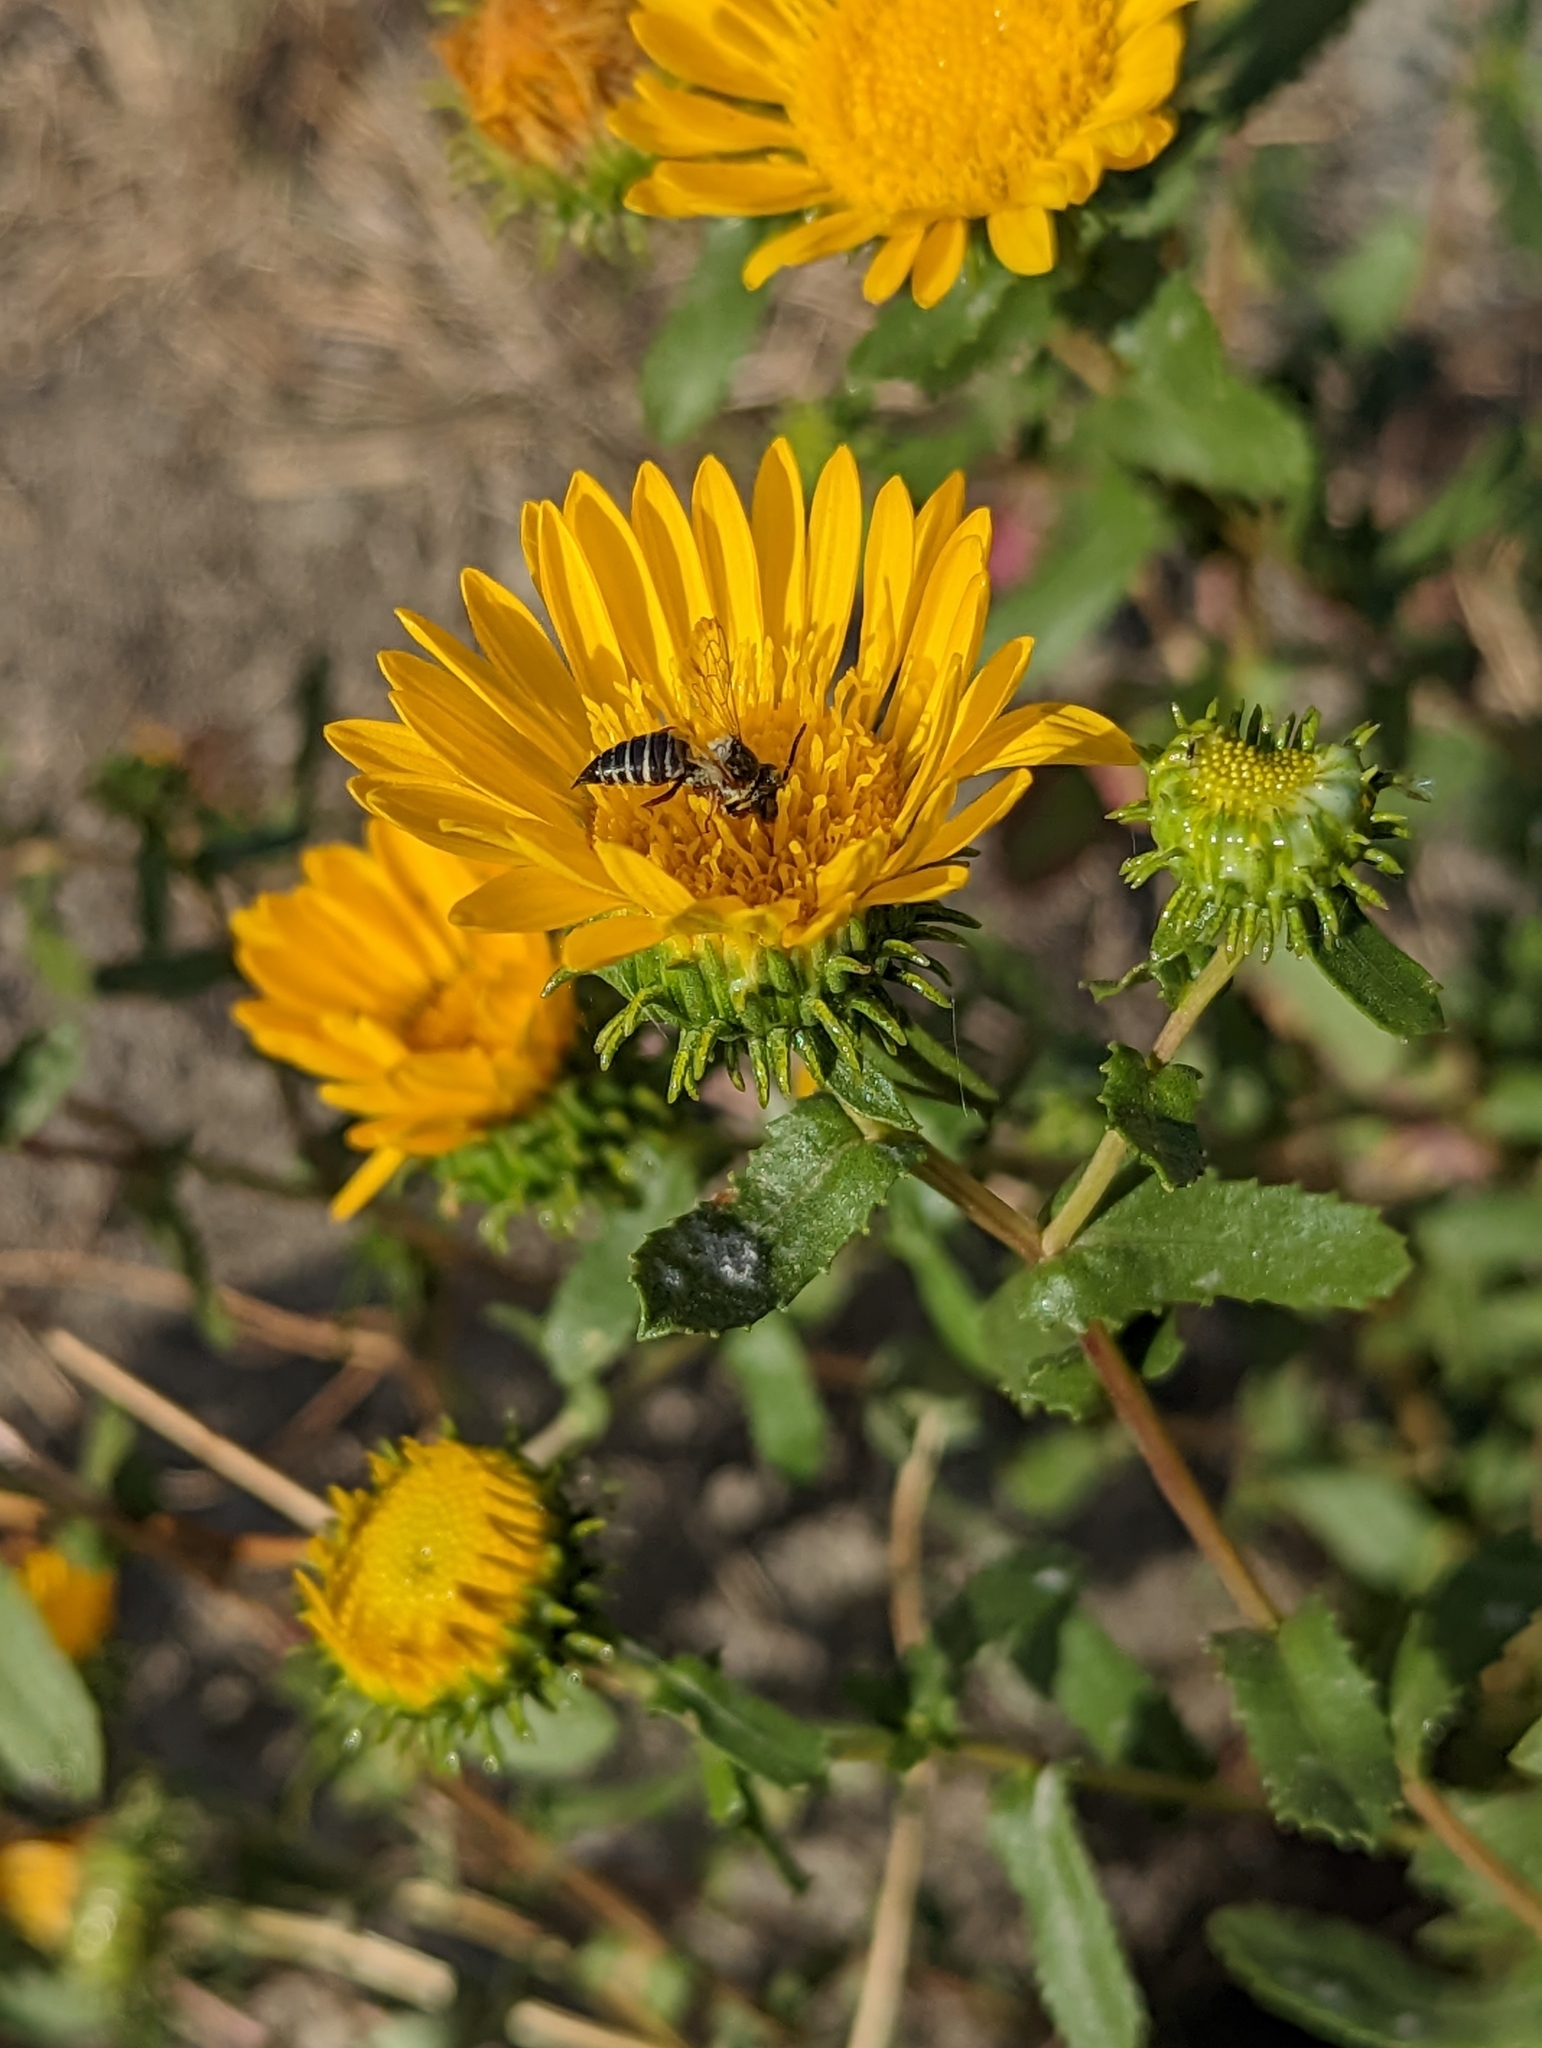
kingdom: Plantae
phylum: Tracheophyta
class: Magnoliopsida
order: Asterales
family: Asteraceae
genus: Grindelia
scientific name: Grindelia squarrosa
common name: Curly-cup gumweed
